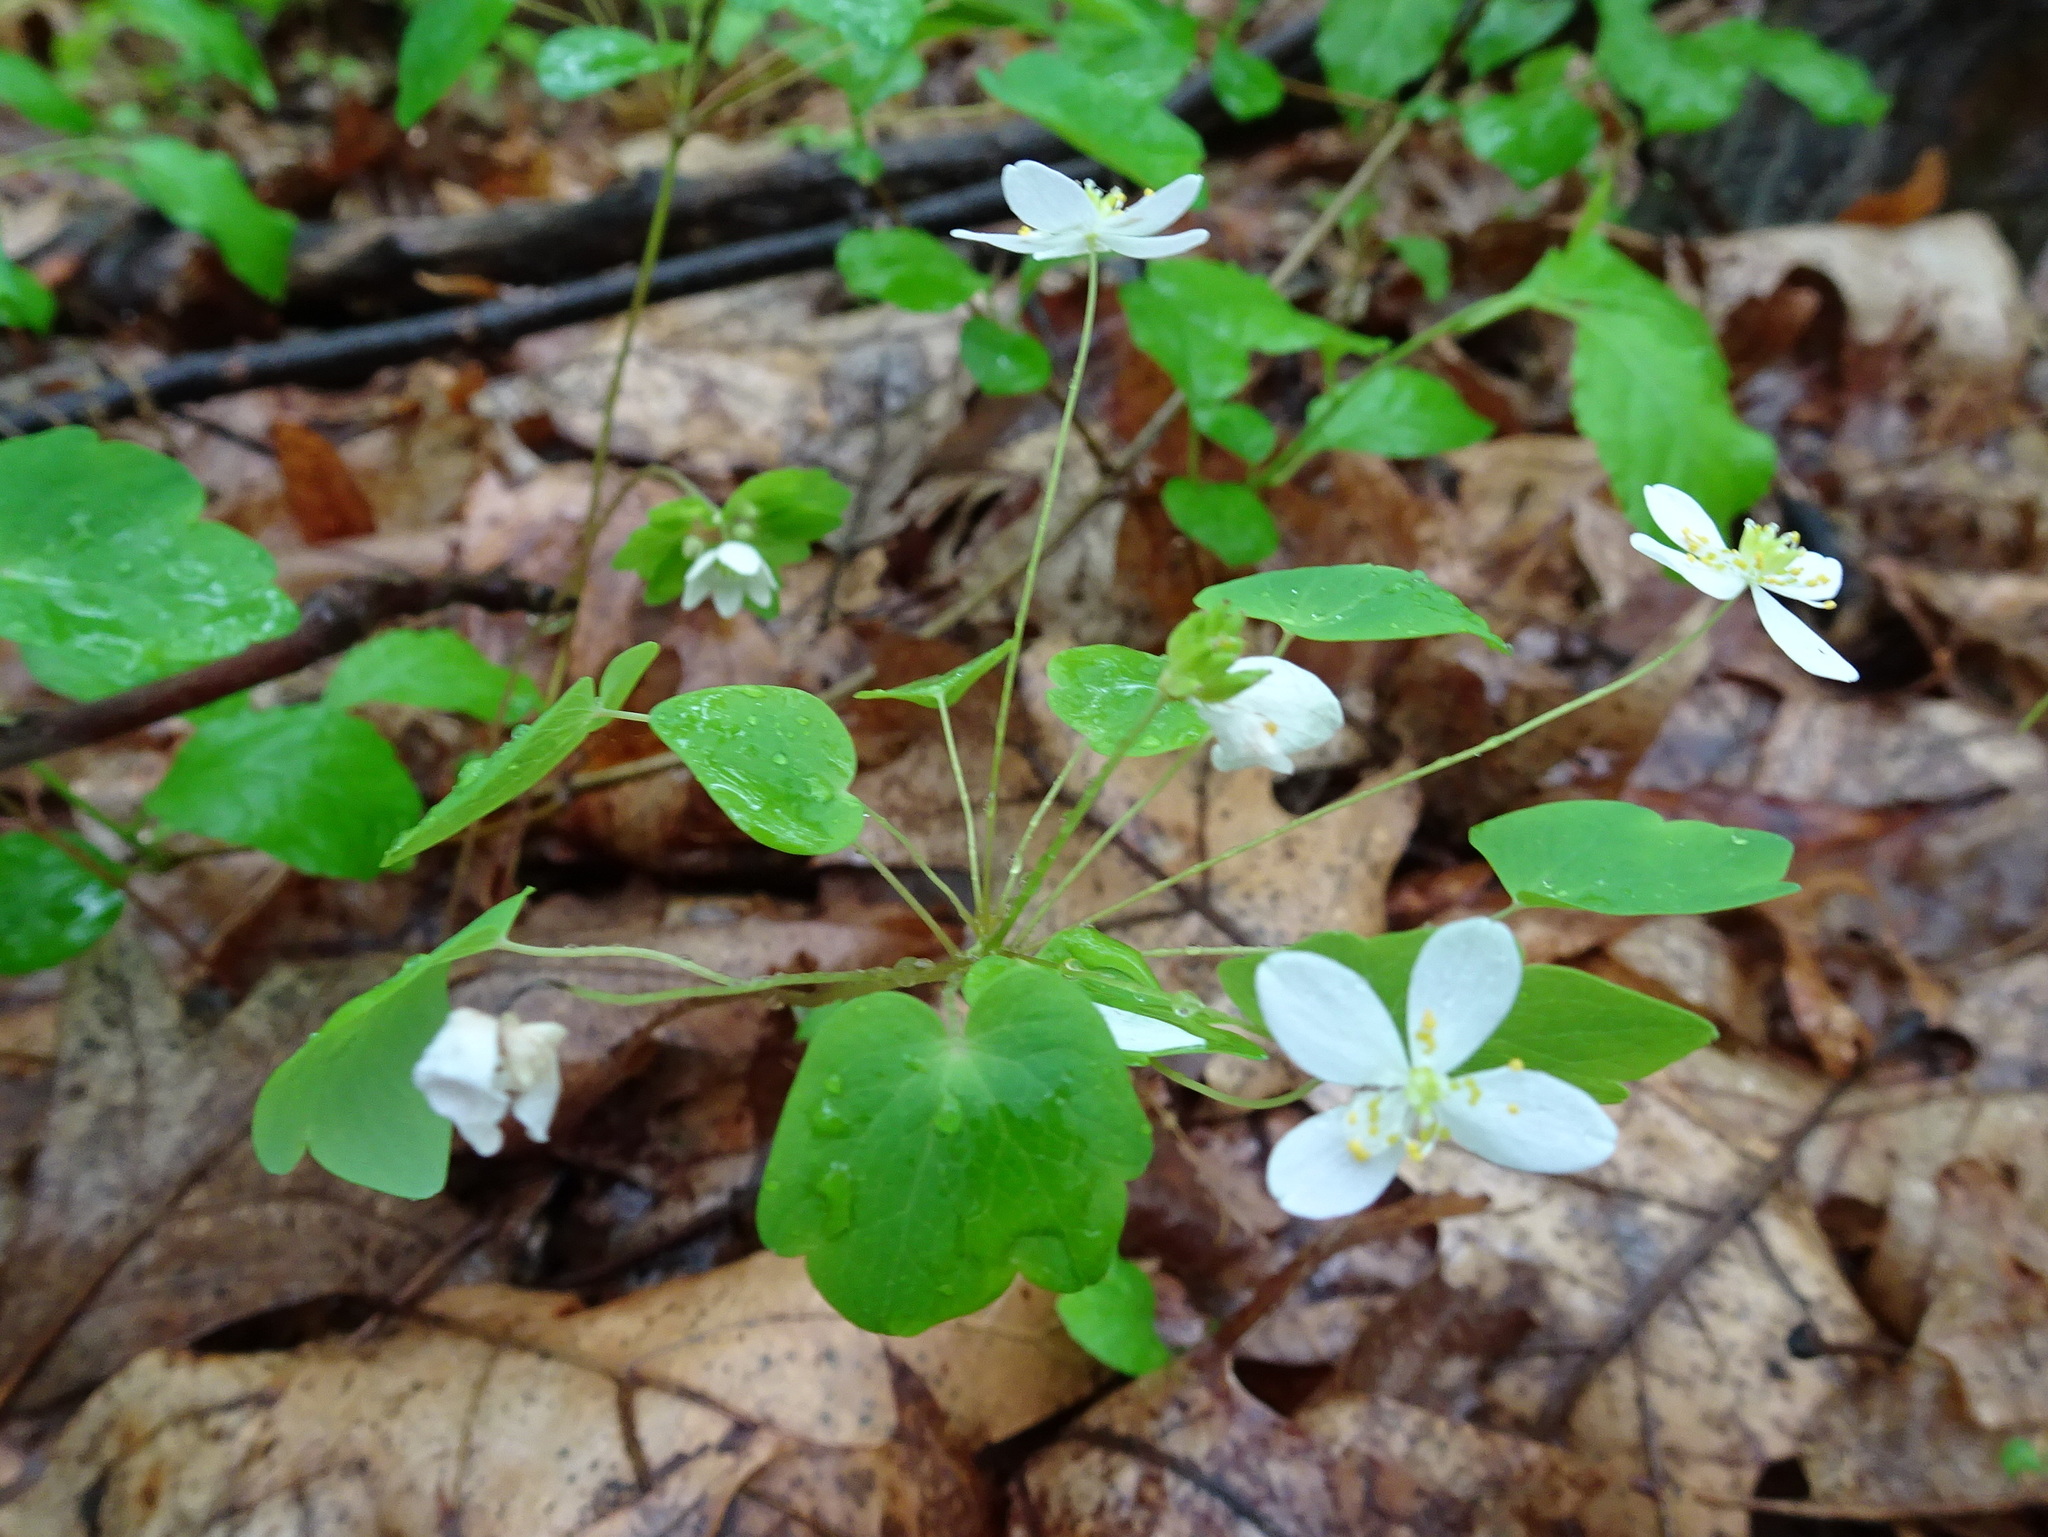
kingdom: Plantae
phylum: Tracheophyta
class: Magnoliopsida
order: Ranunculales
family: Ranunculaceae
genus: Thalictrum
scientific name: Thalictrum thalictroides
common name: Rue-anemone
